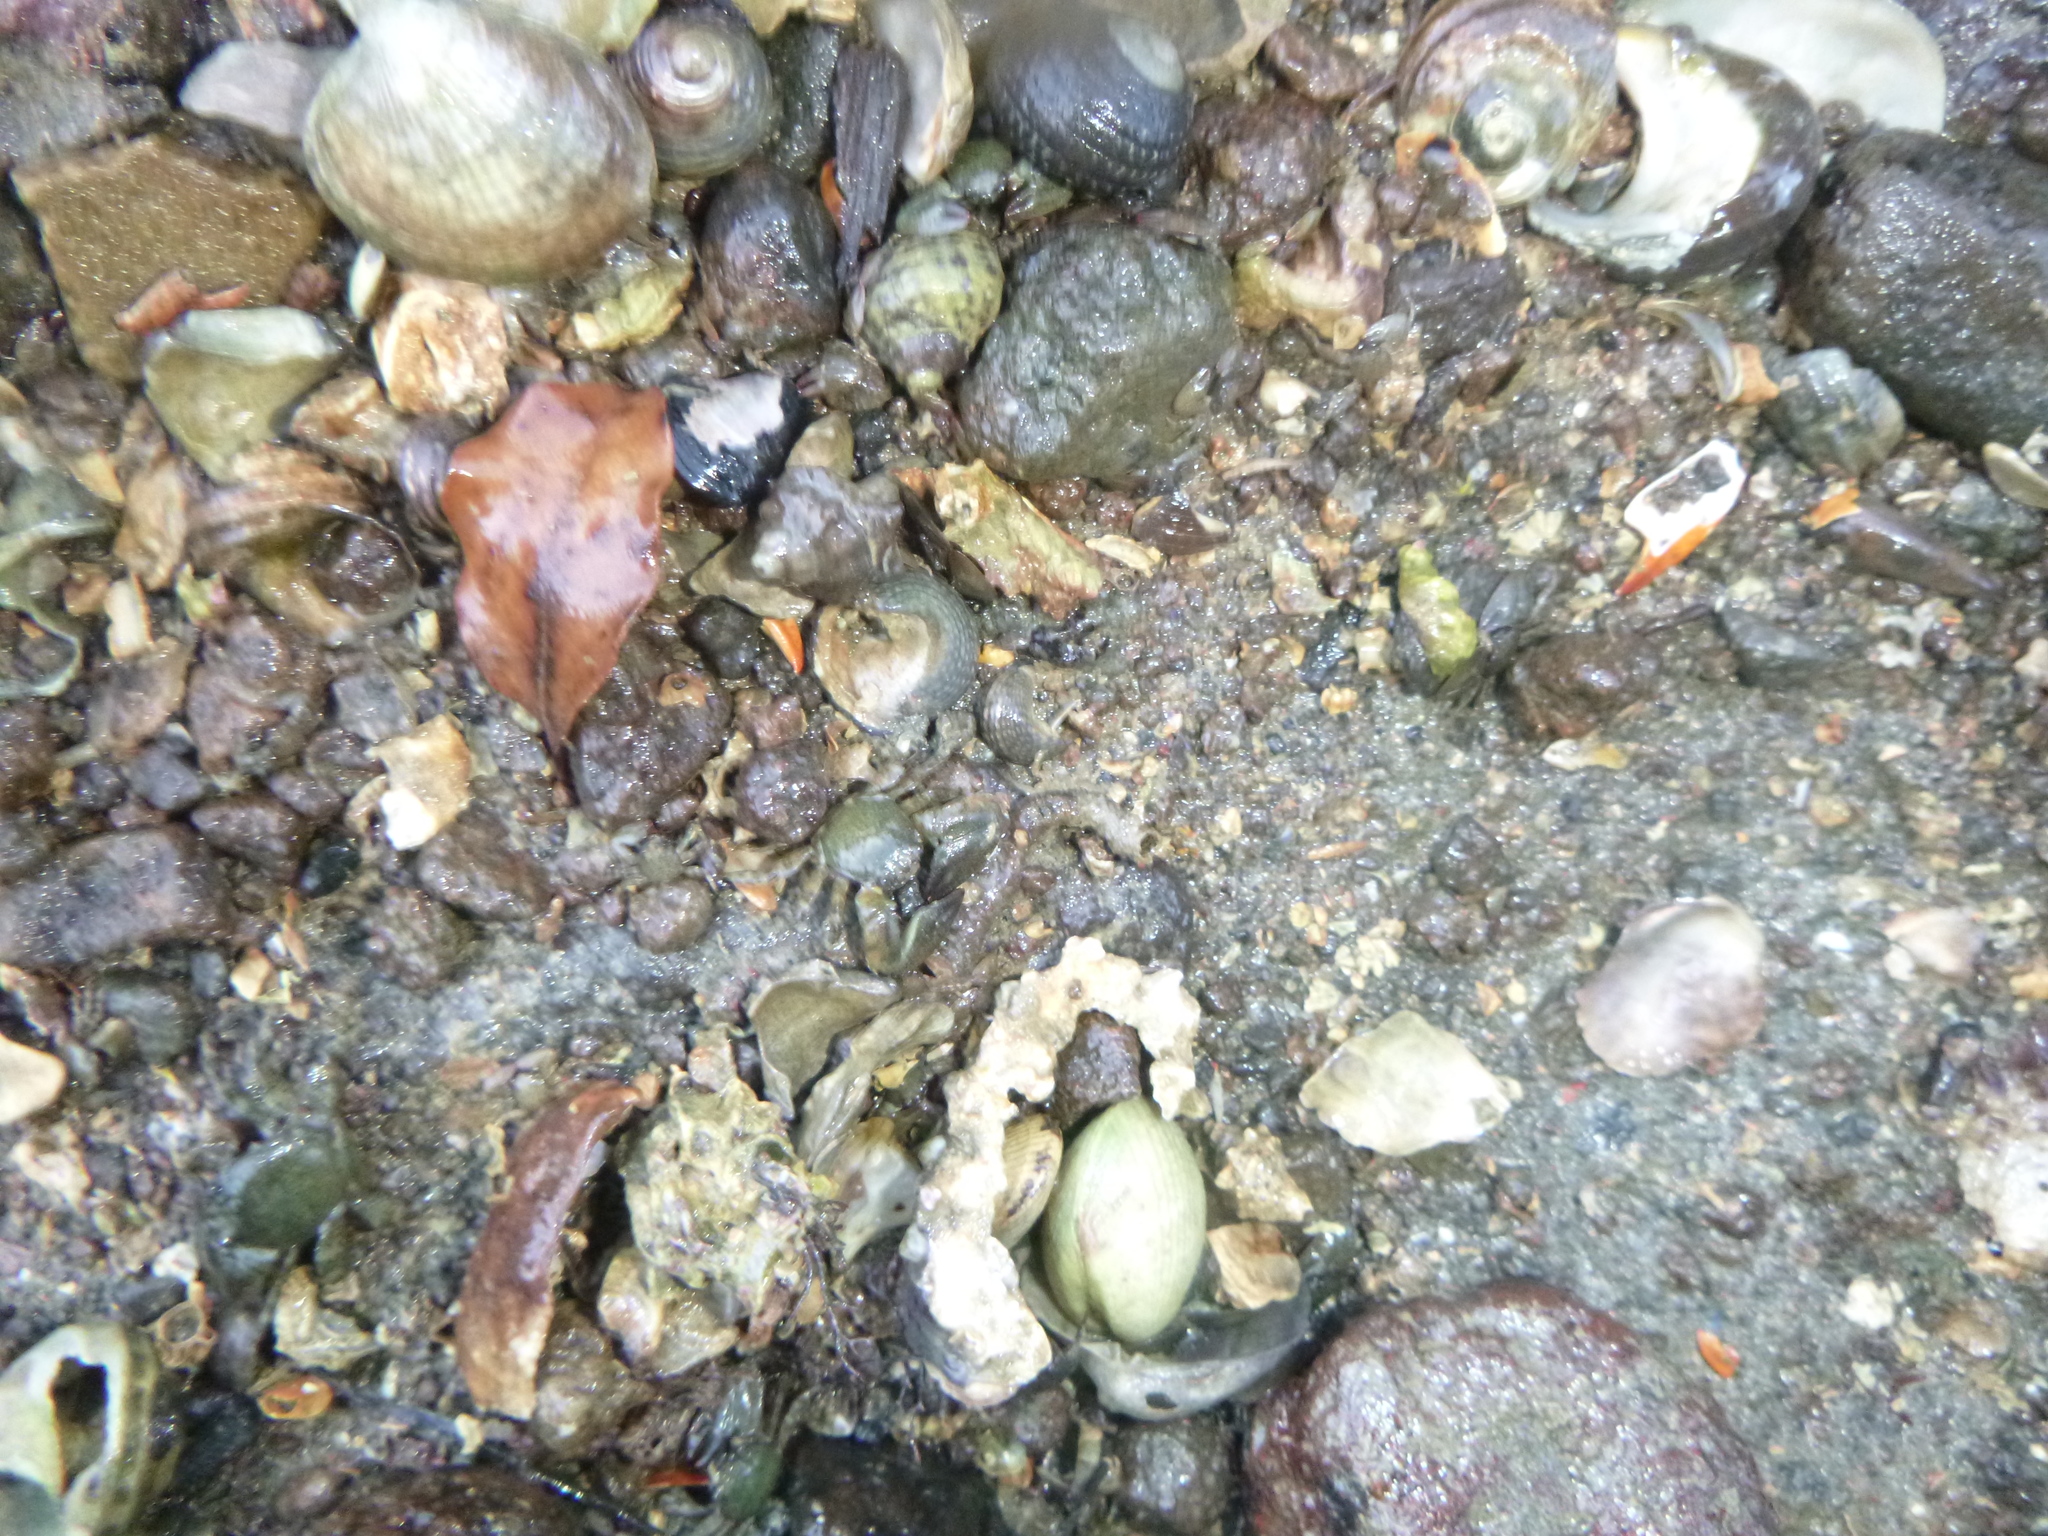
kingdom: Animalia
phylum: Arthropoda
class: Malacostraca
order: Decapoda
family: Porcellanidae
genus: Petrolisthes
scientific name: Petrolisthes elongatus
